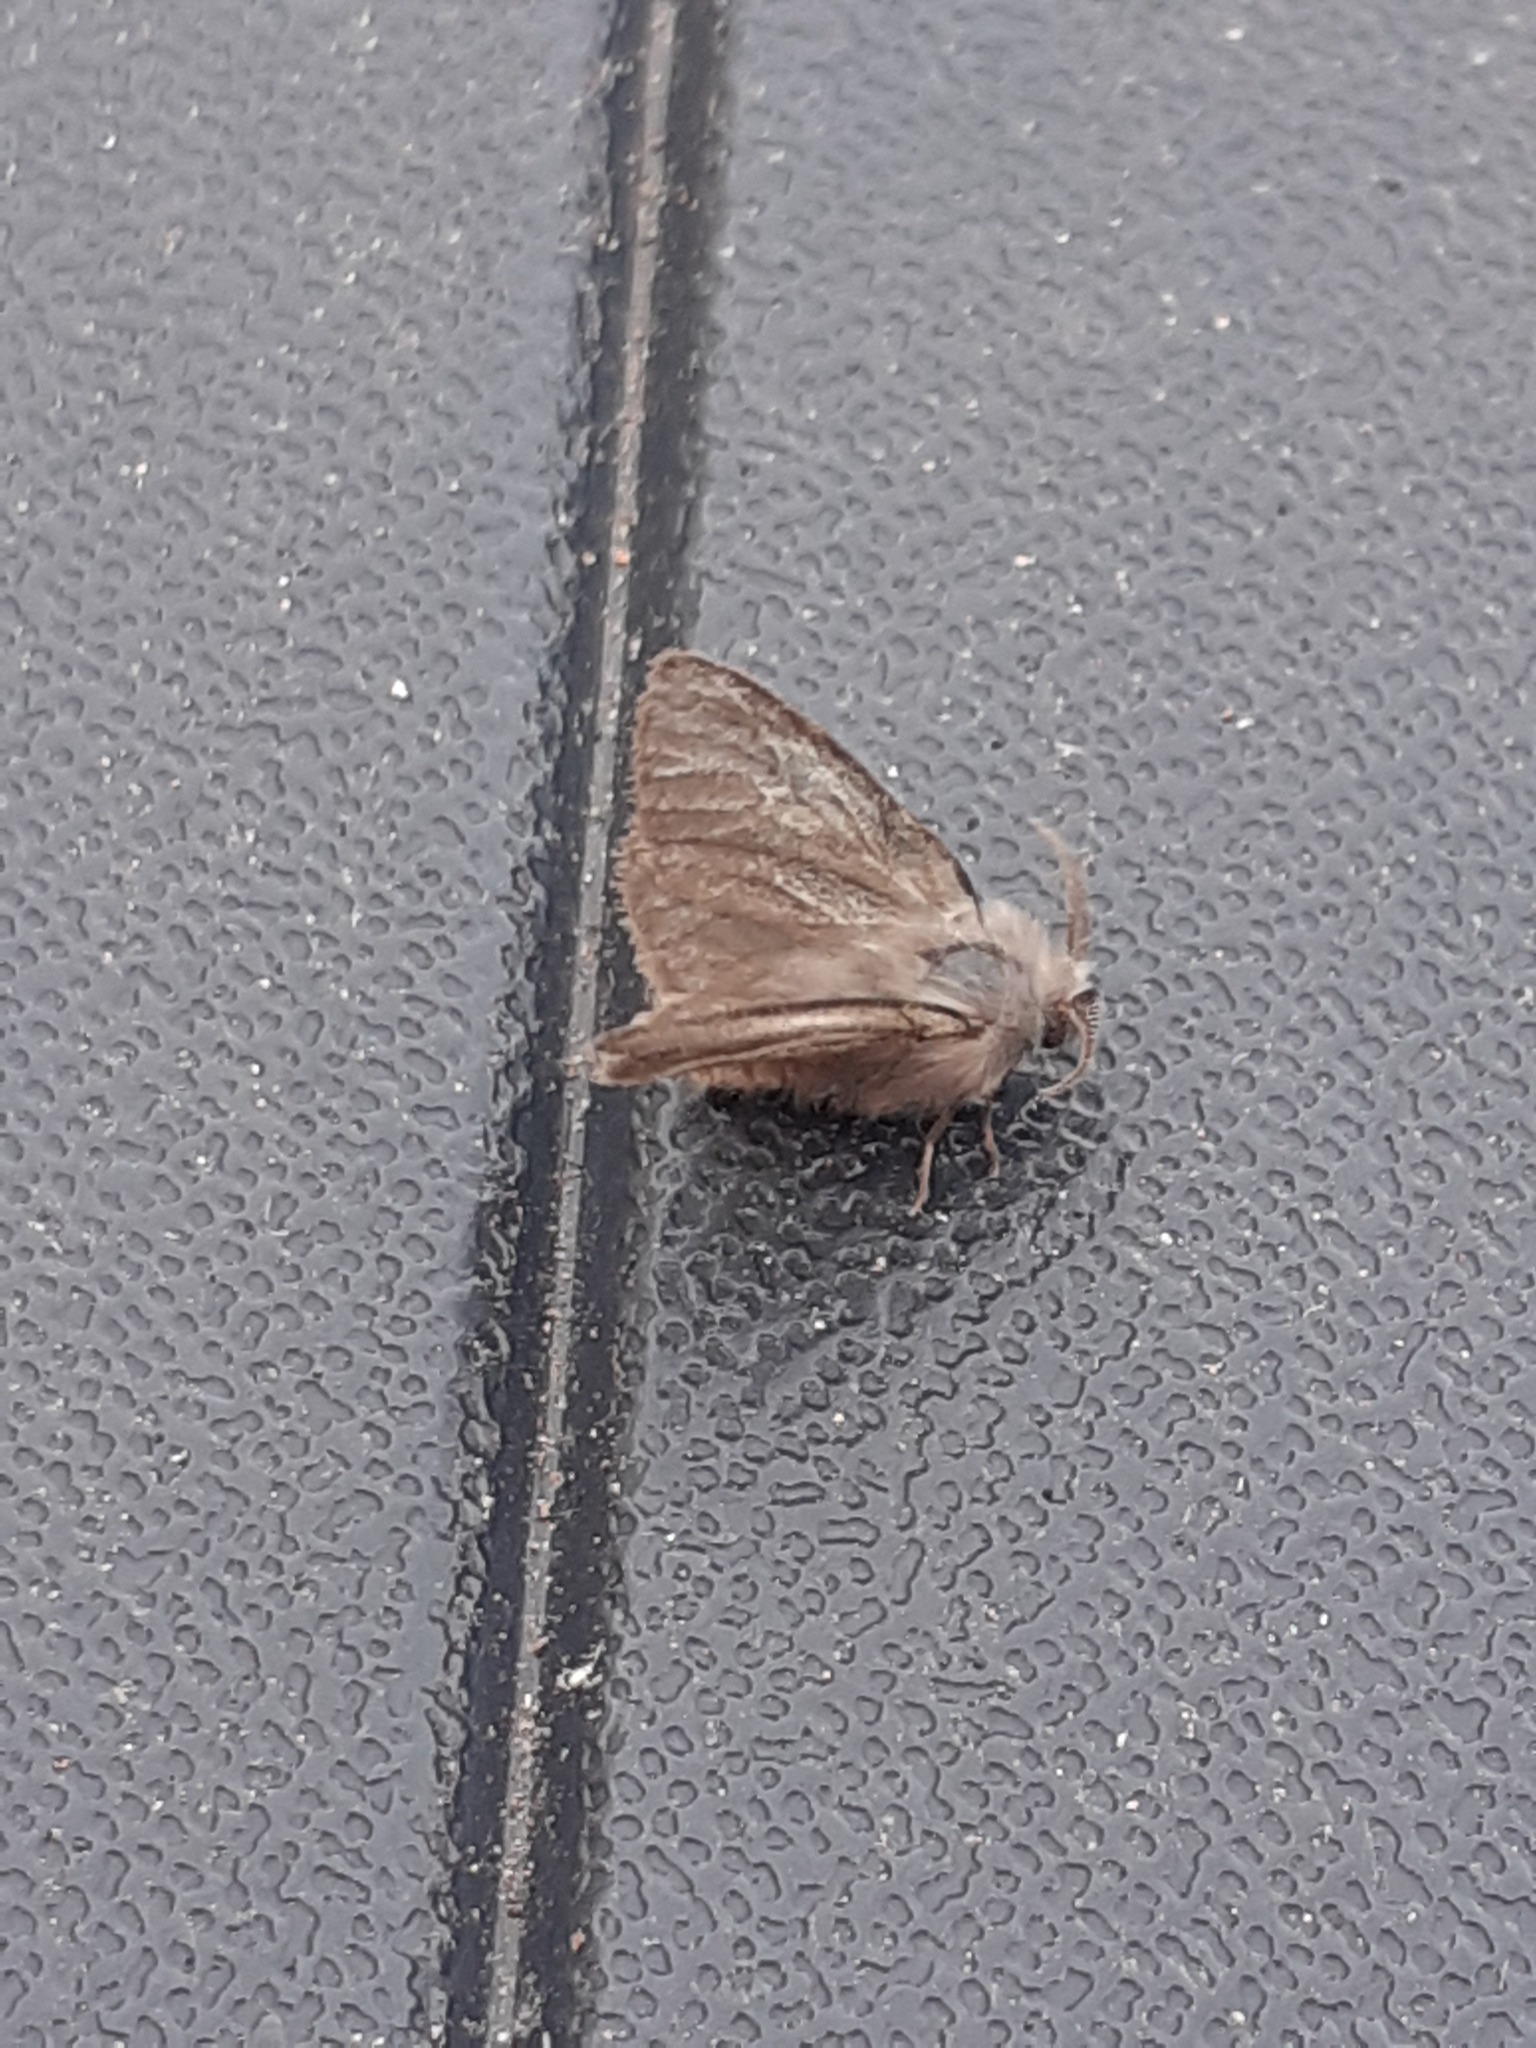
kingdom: Animalia
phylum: Arthropoda
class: Insecta
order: Lepidoptera
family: Psychidae
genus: Amicta
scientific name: Amicta cabrerai
